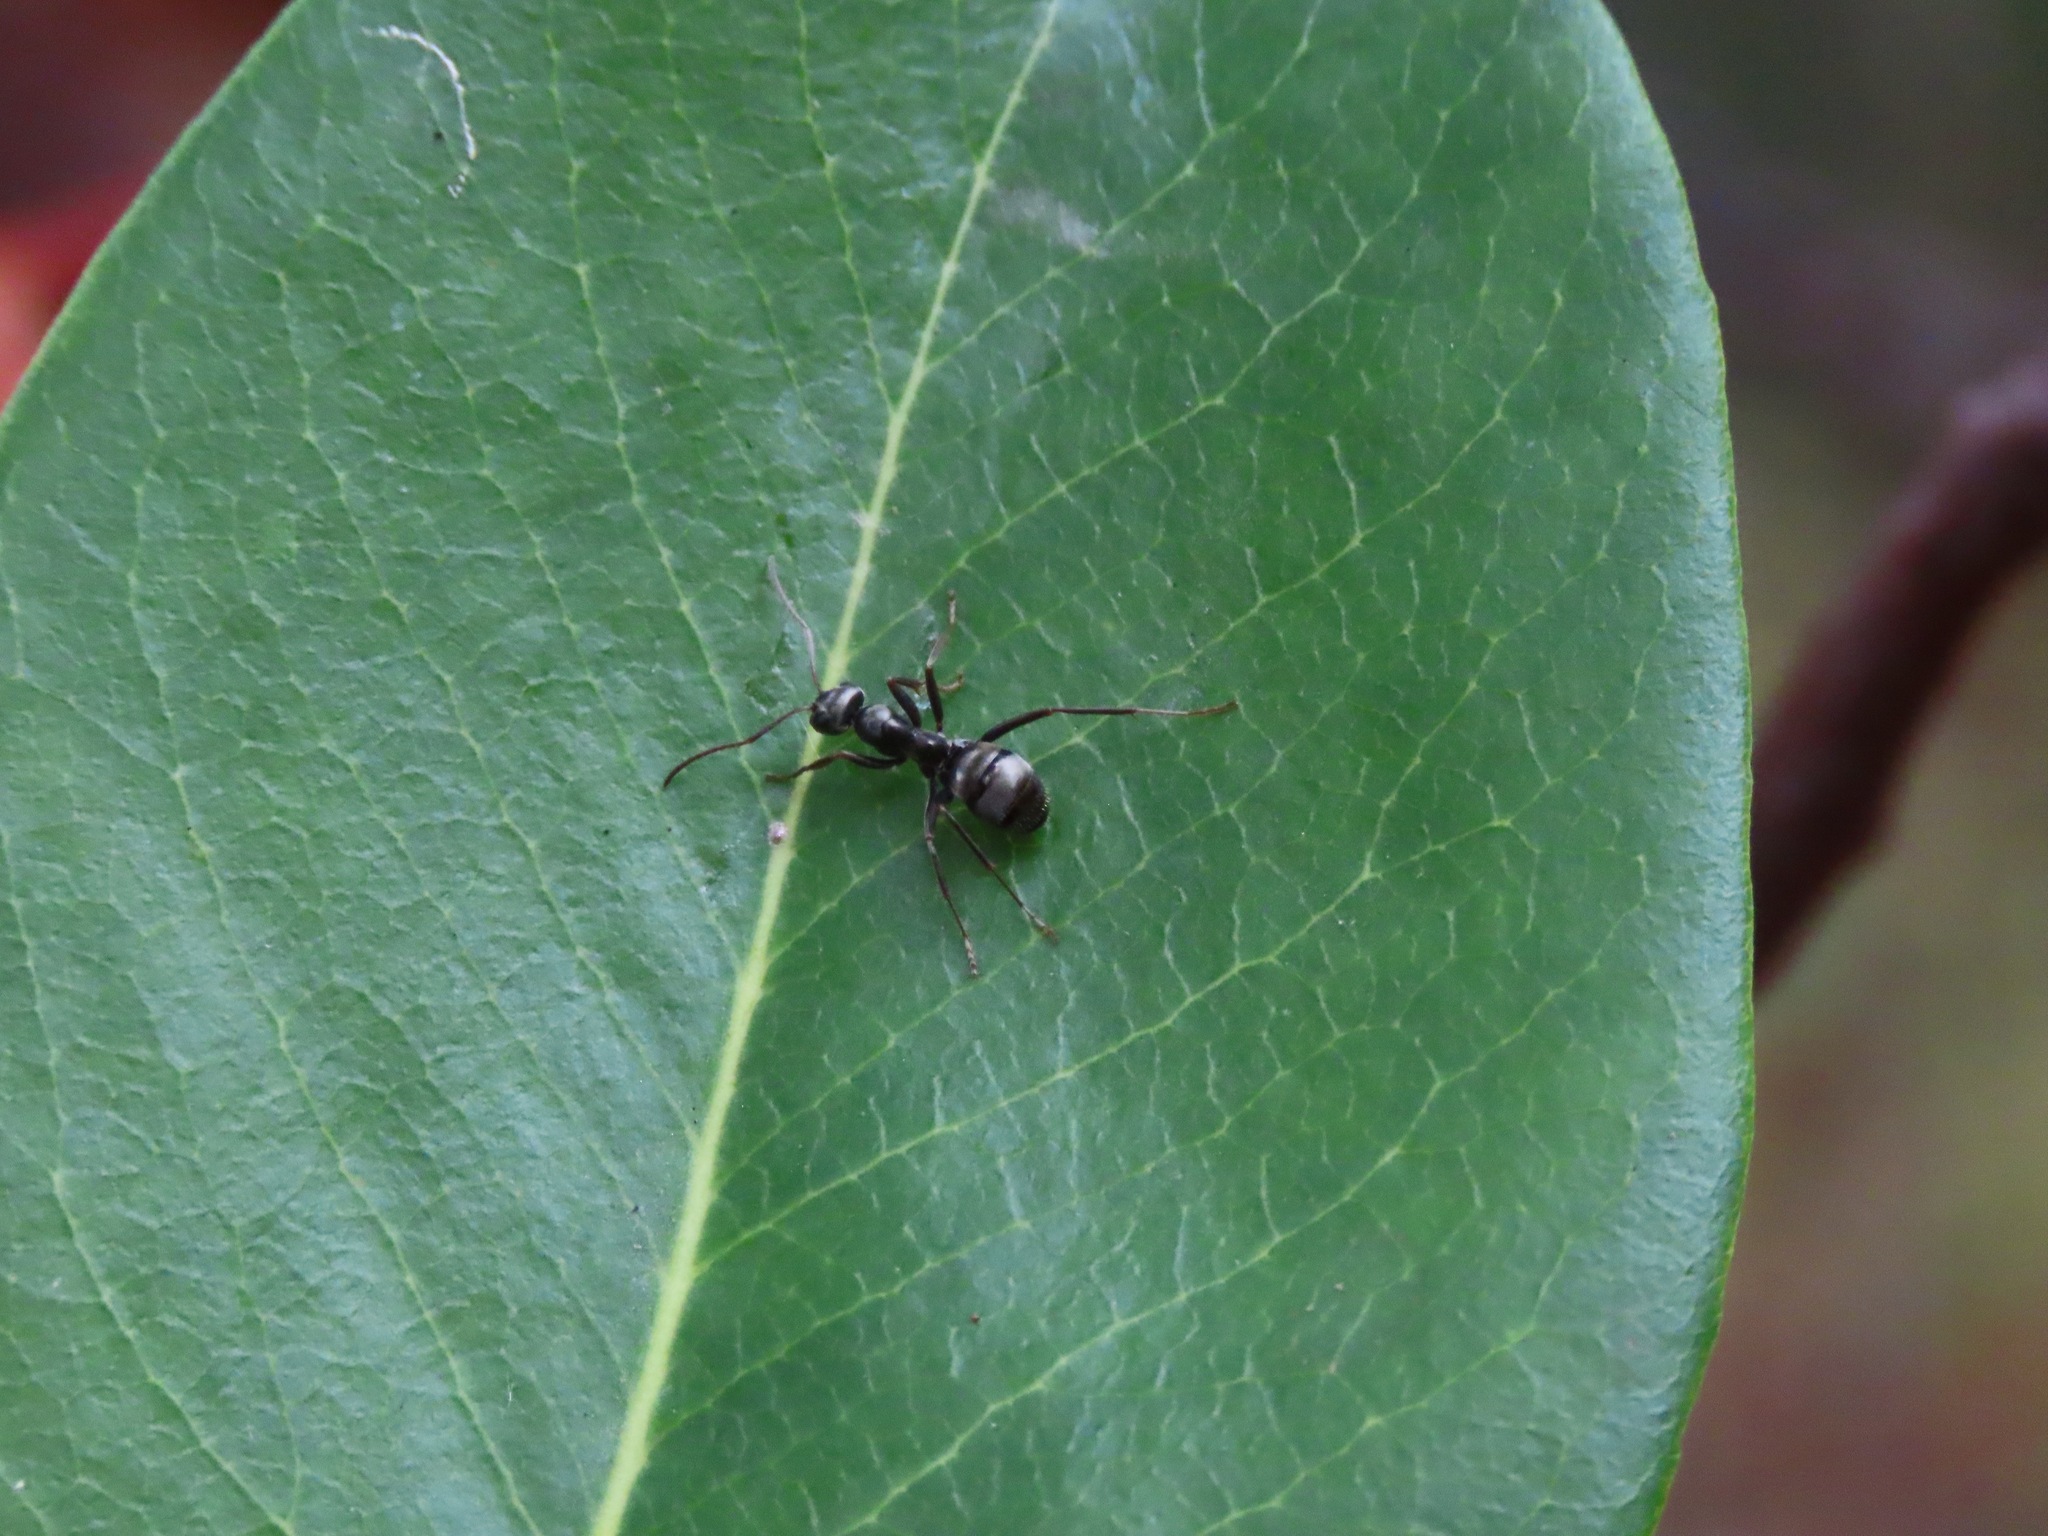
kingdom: Animalia
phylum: Arthropoda
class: Insecta
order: Hymenoptera
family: Formicidae
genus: Formica
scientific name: Formica
